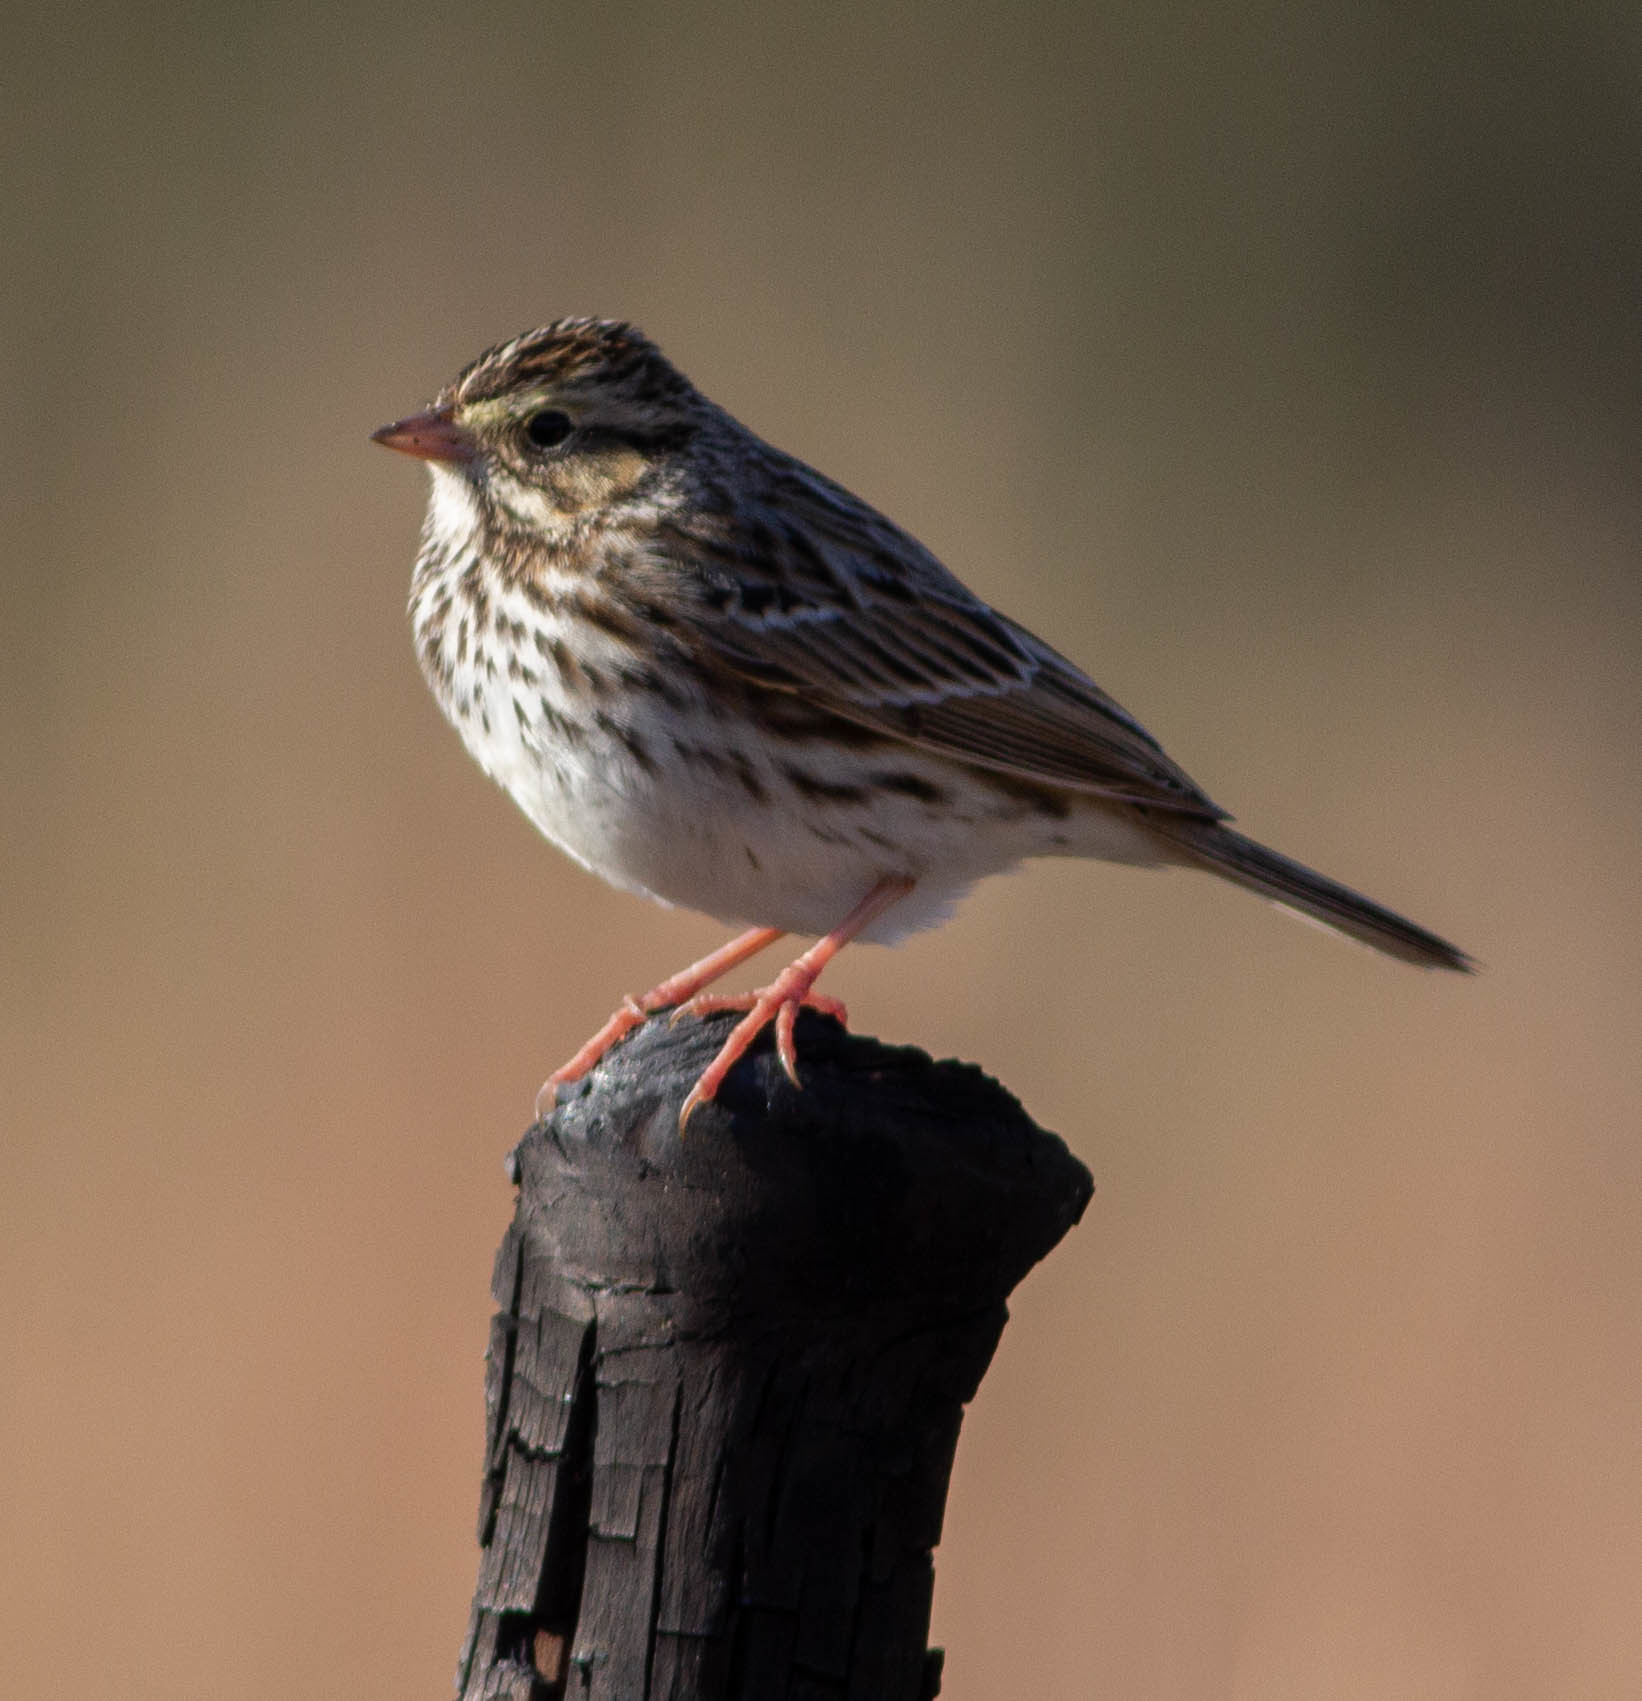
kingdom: Animalia
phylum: Chordata
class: Aves
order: Passeriformes
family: Passerellidae
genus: Passerculus
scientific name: Passerculus sandwichensis
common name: Savannah sparrow
